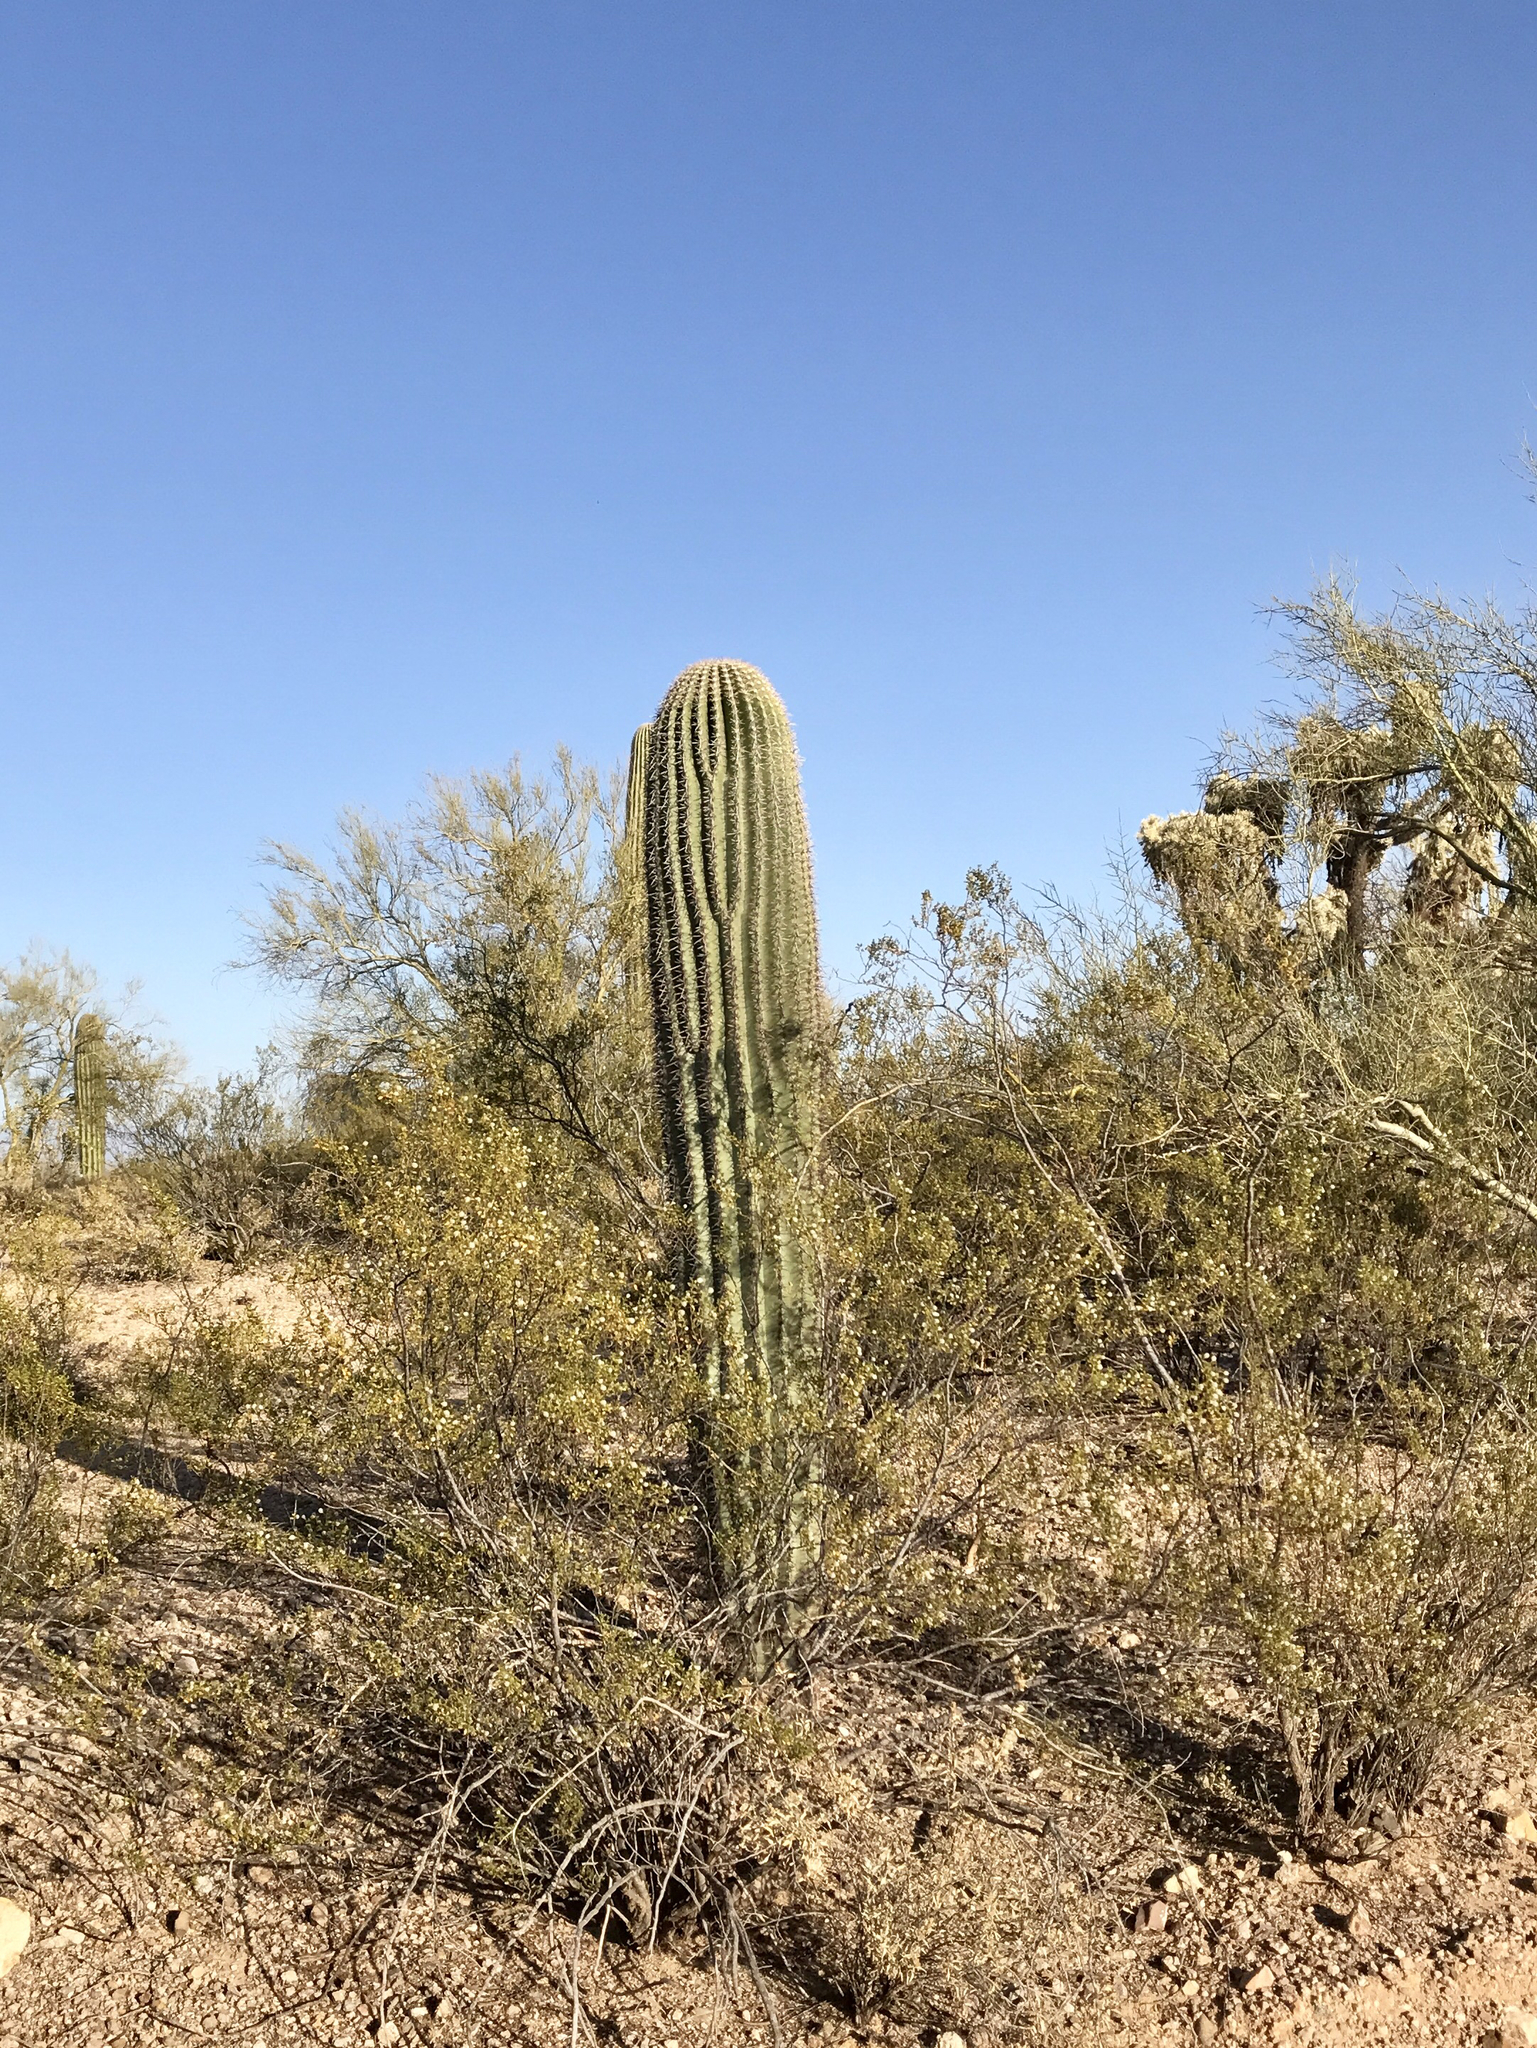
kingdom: Plantae
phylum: Tracheophyta
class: Magnoliopsida
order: Caryophyllales
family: Cactaceae
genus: Carnegiea
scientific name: Carnegiea gigantea
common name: Saguaro
